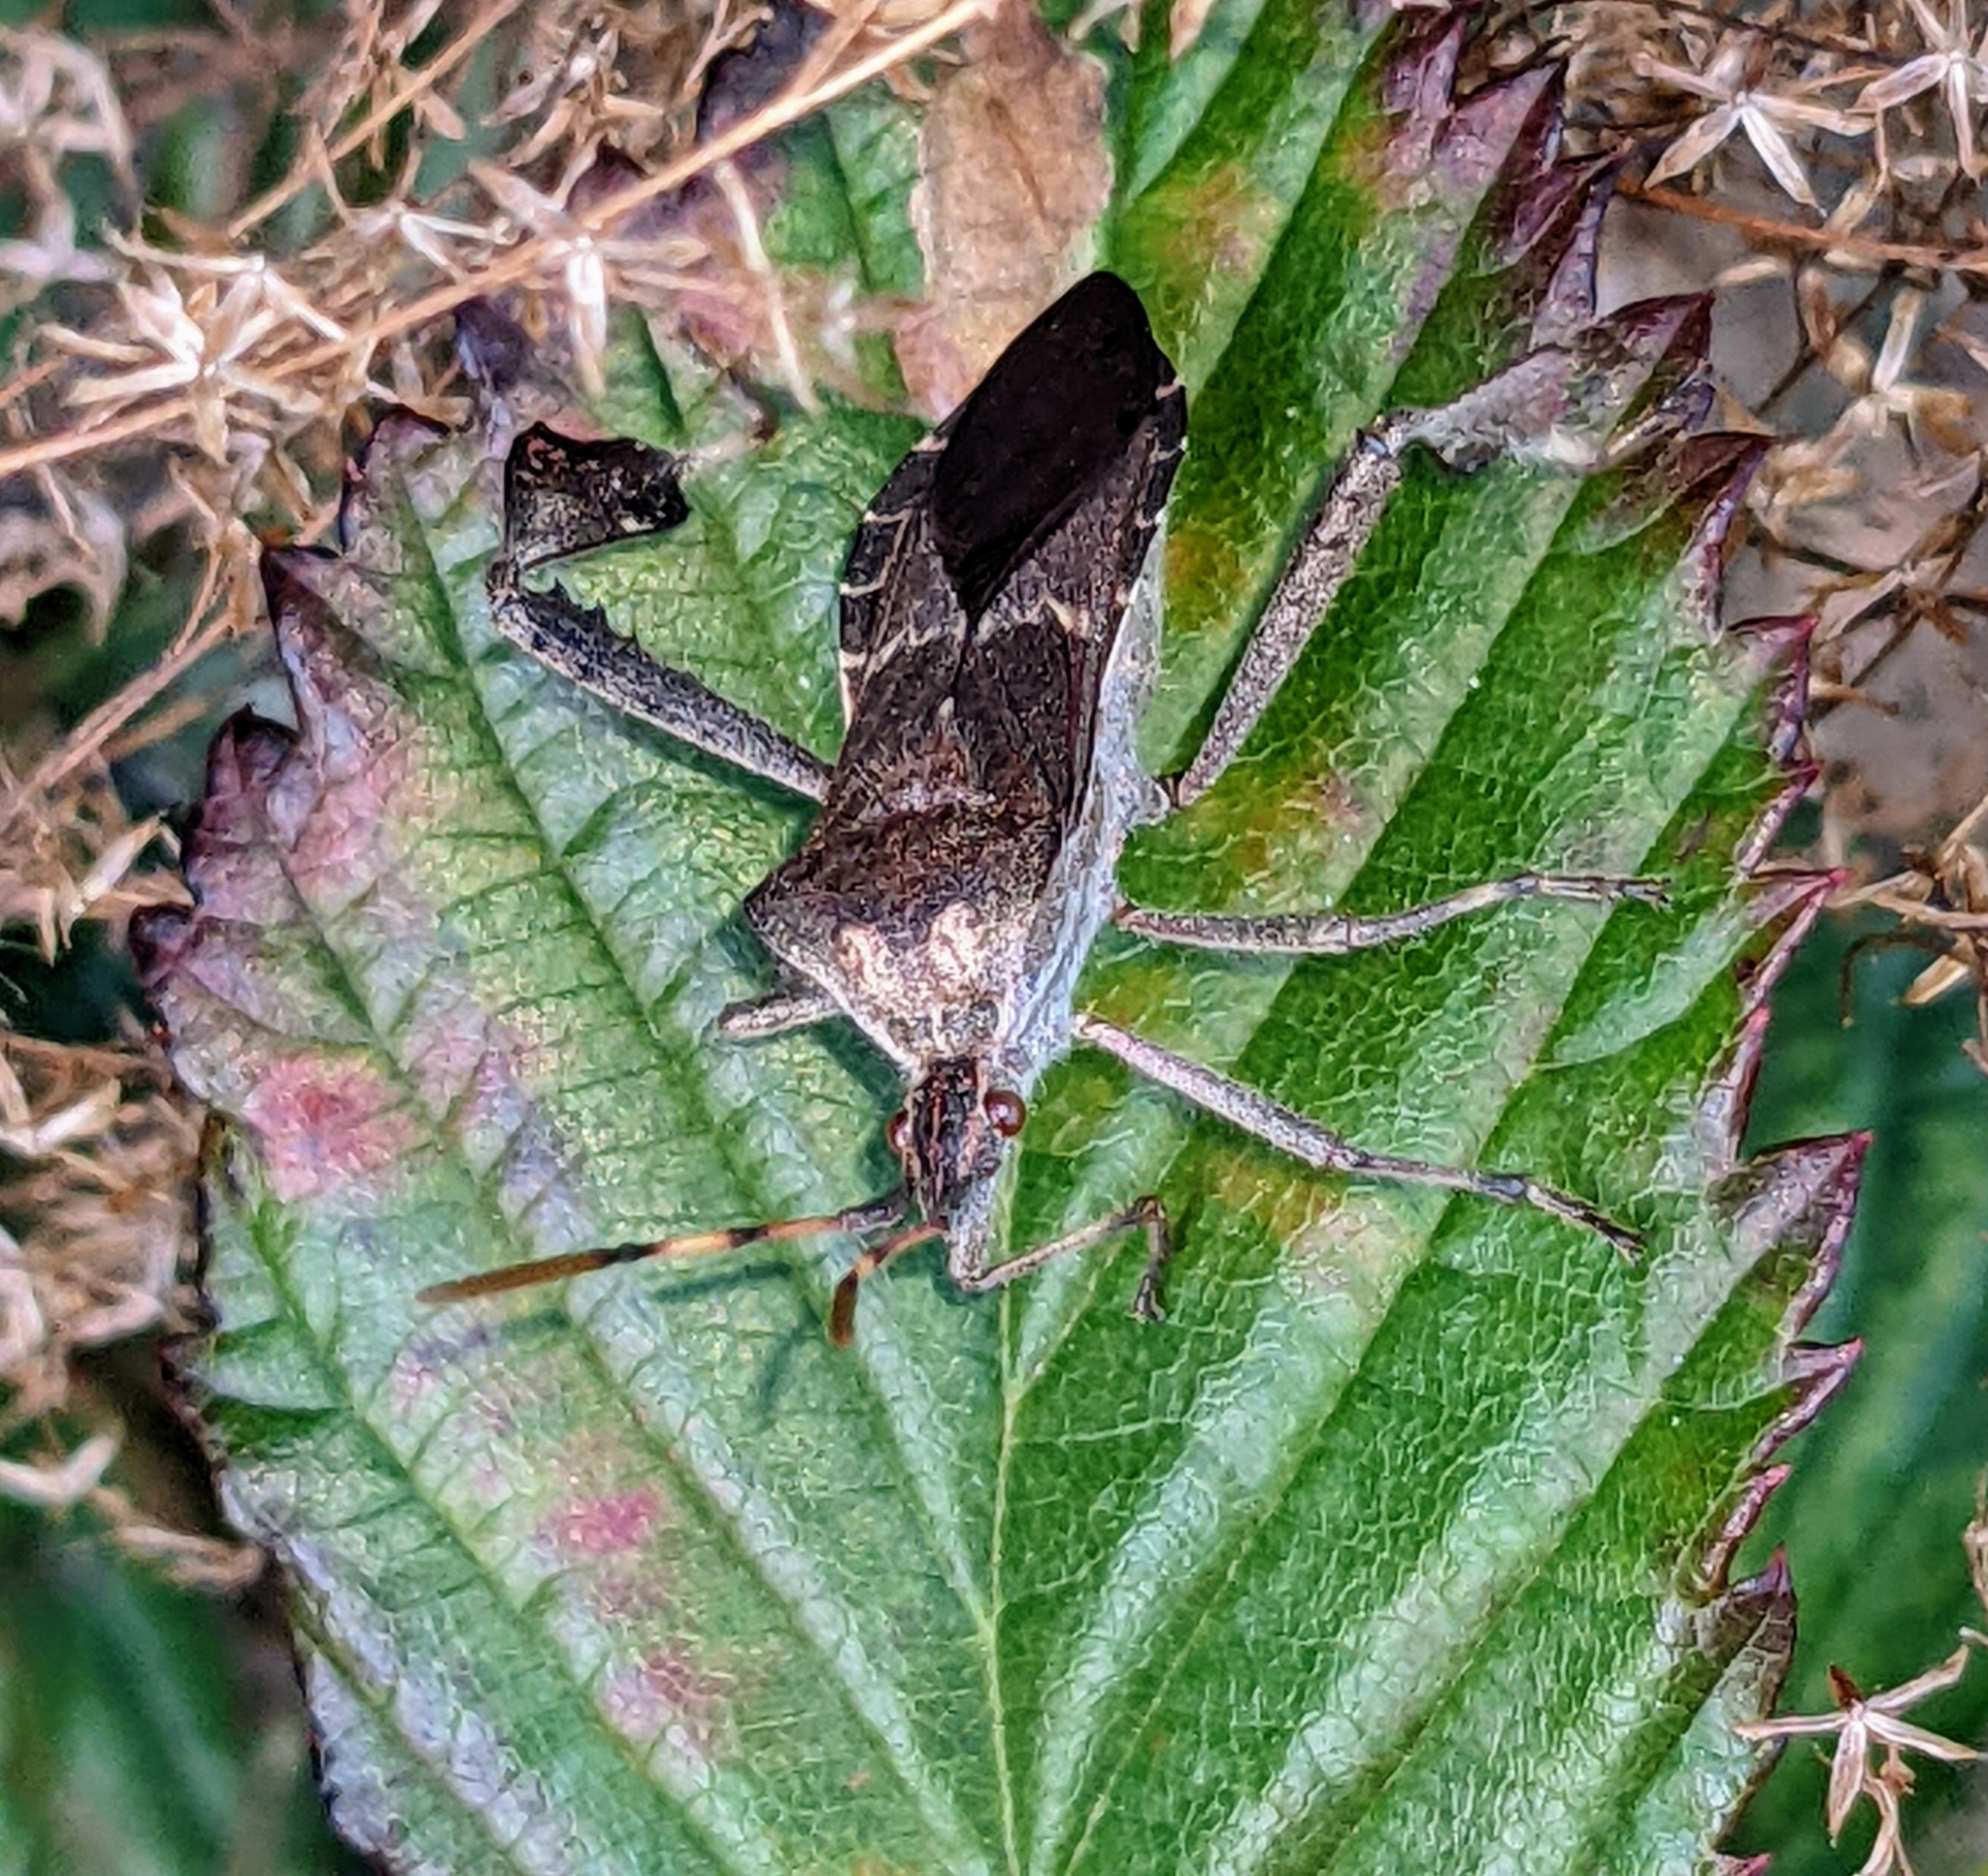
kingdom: Animalia
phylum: Arthropoda
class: Insecta
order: Hemiptera
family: Coreidae
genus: Leptoglossus
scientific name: Leptoglossus zonatus
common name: Large-legged bug
